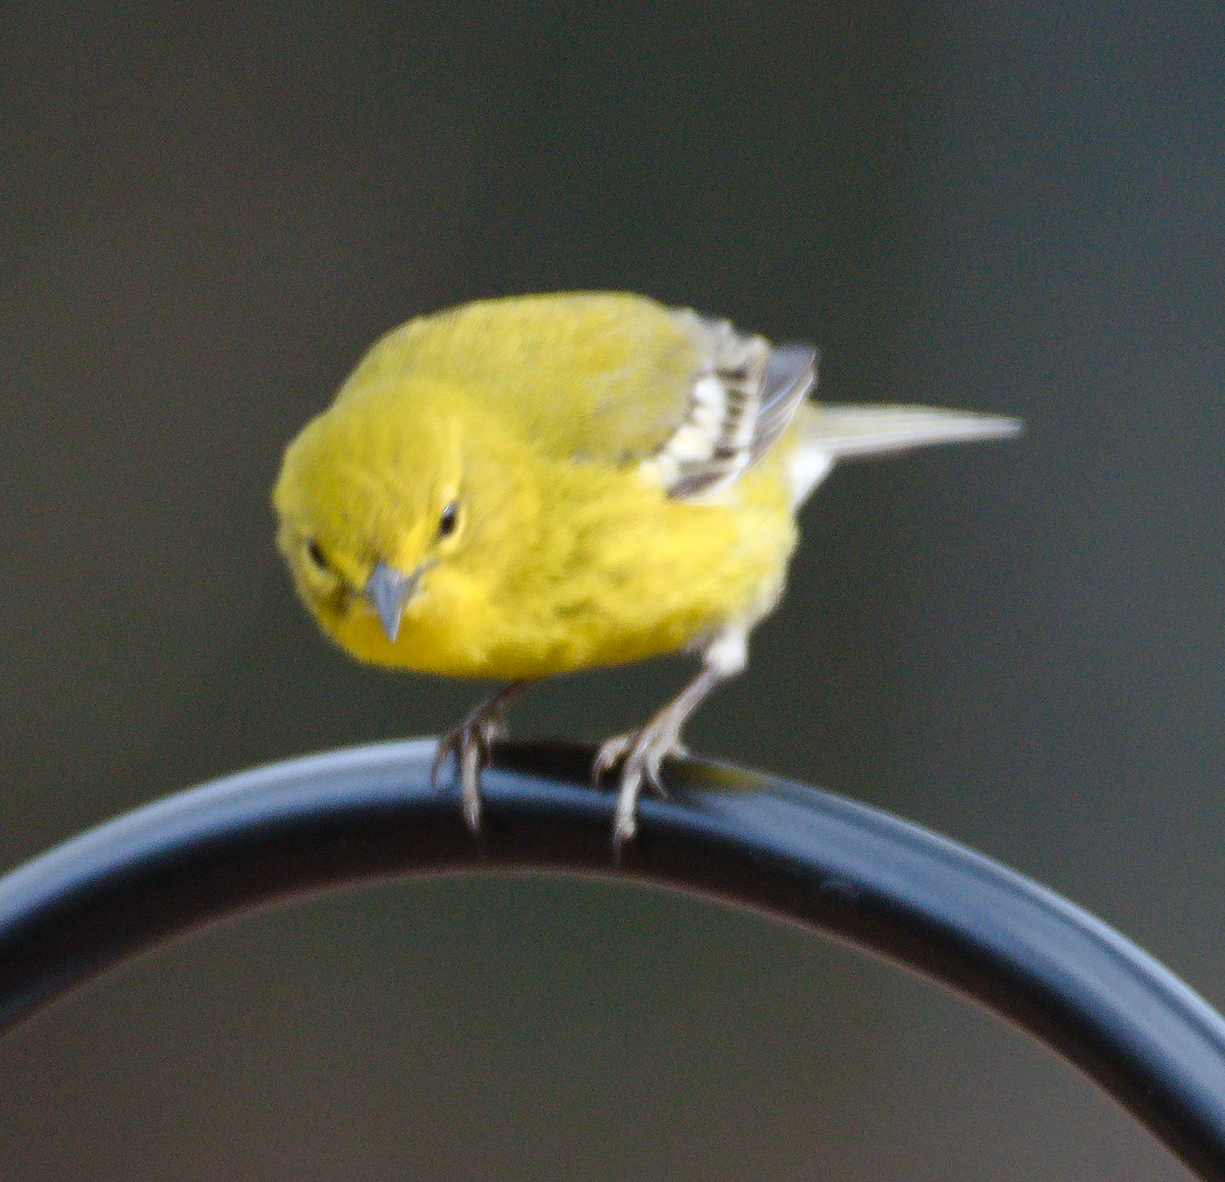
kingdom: Animalia
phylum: Chordata
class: Aves
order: Passeriformes
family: Parulidae
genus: Setophaga
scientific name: Setophaga pinus
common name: Pine warbler
